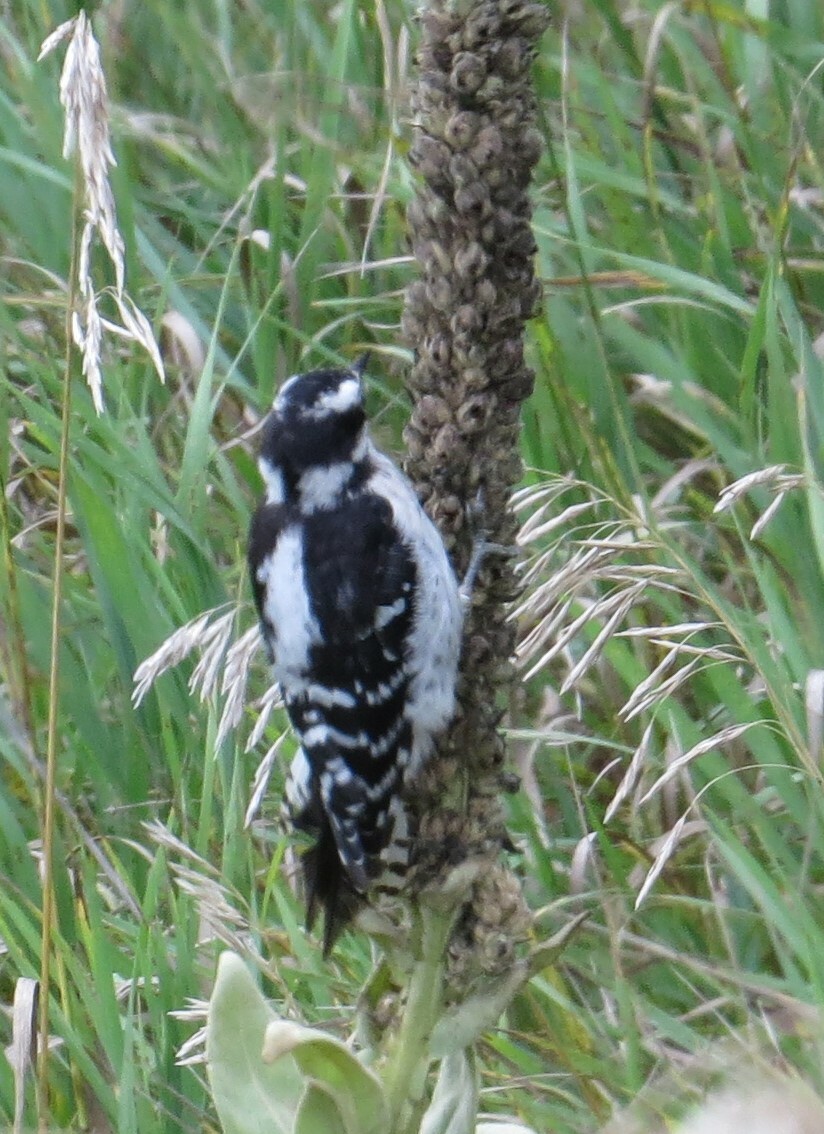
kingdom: Animalia
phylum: Chordata
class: Aves
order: Piciformes
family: Picidae
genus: Dryobates
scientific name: Dryobates pubescens
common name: Downy woodpecker
